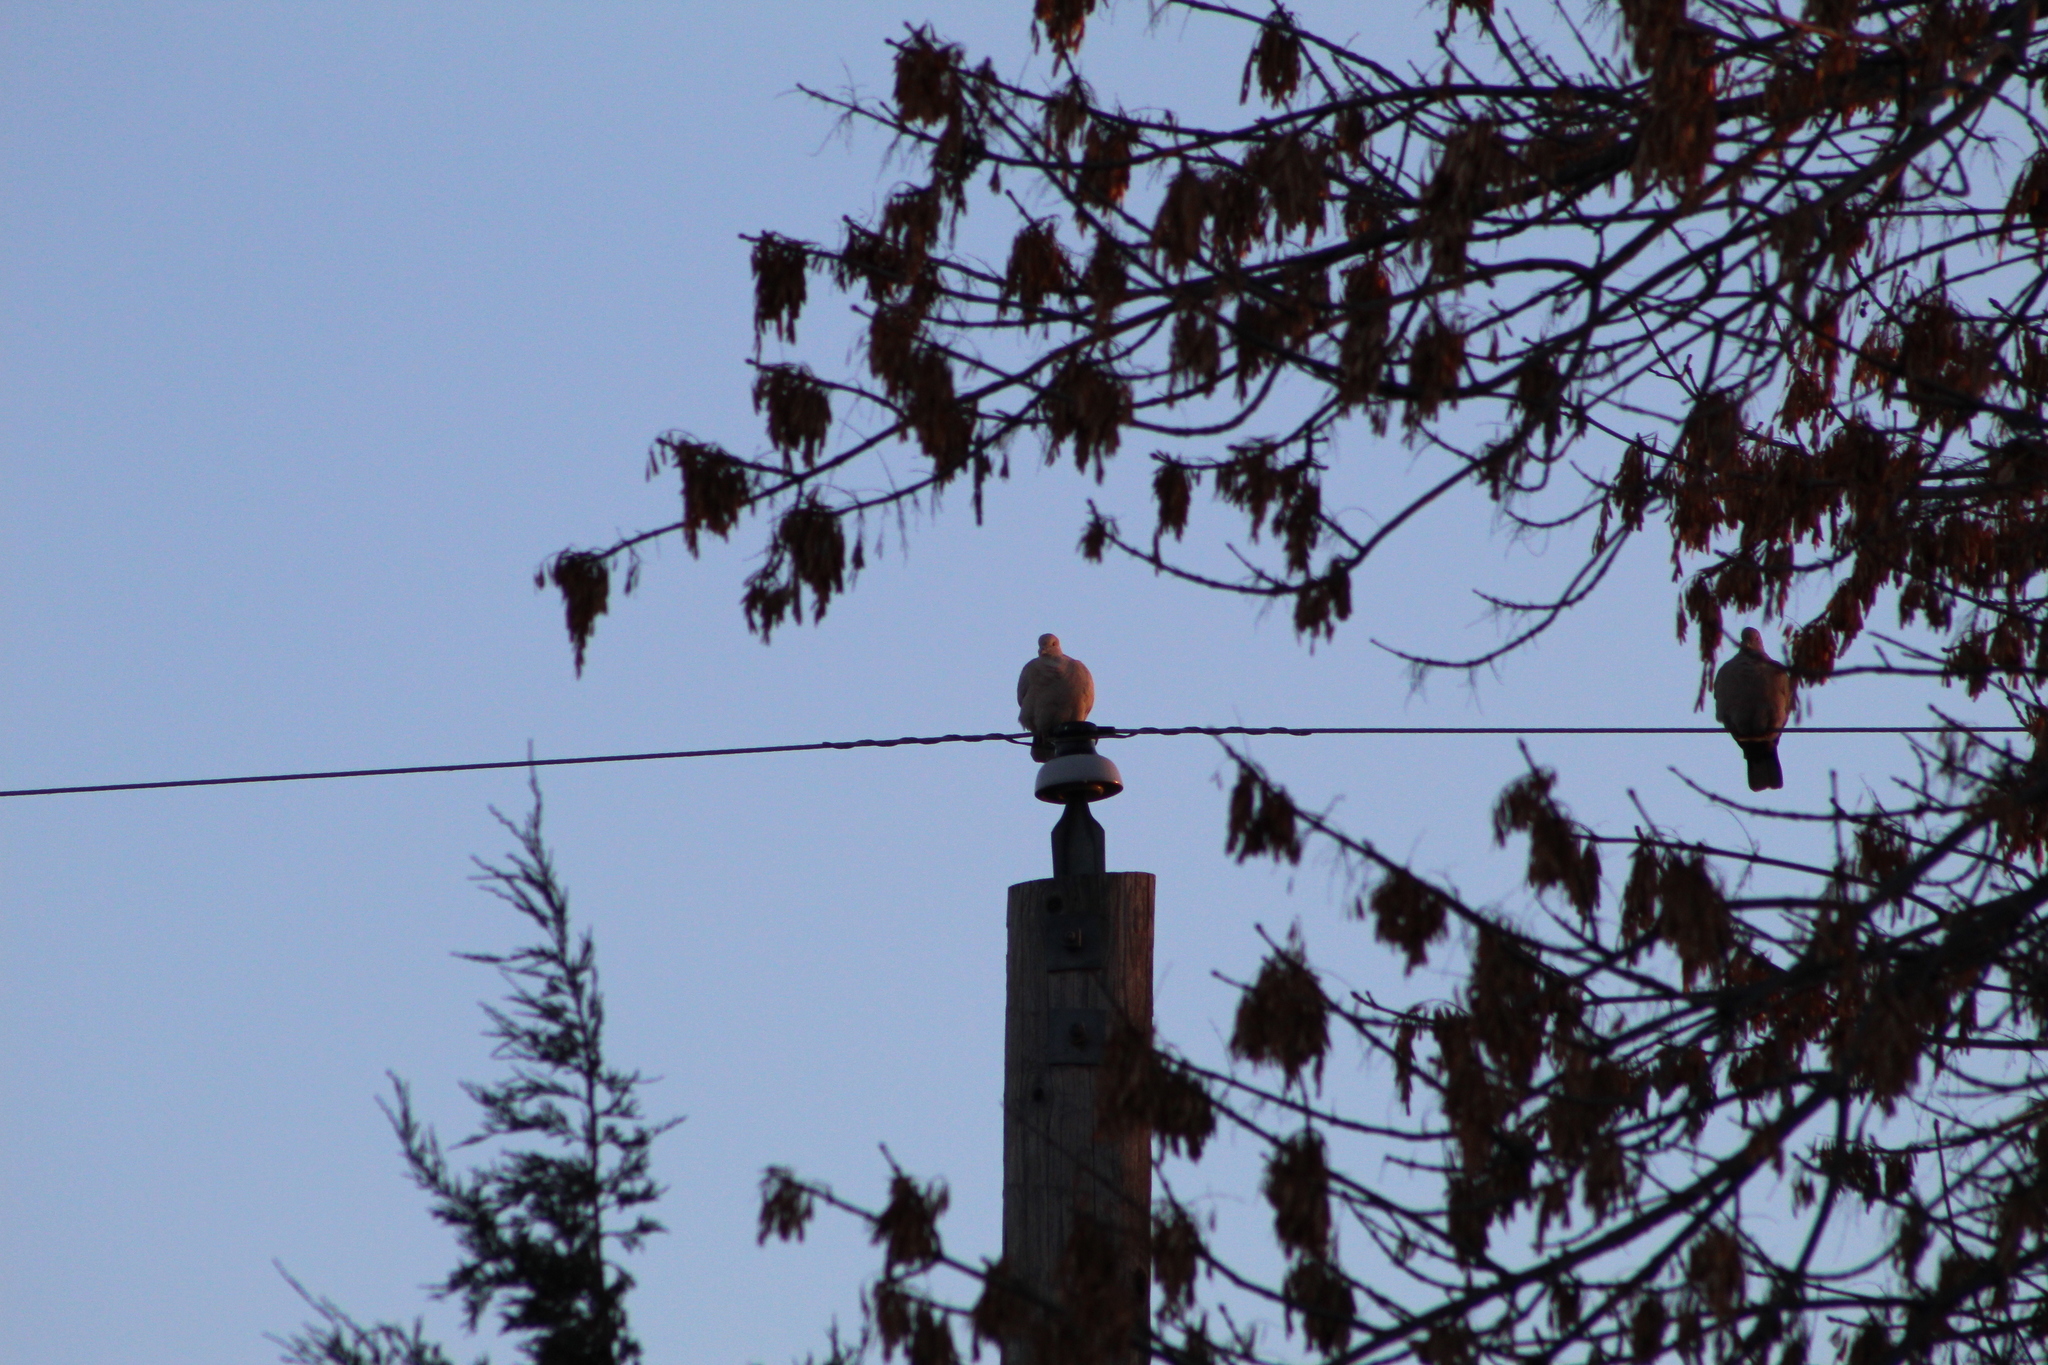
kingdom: Animalia
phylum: Chordata
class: Aves
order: Columbiformes
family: Columbidae
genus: Streptopelia
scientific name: Streptopelia decaocto
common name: Eurasian collared dove
